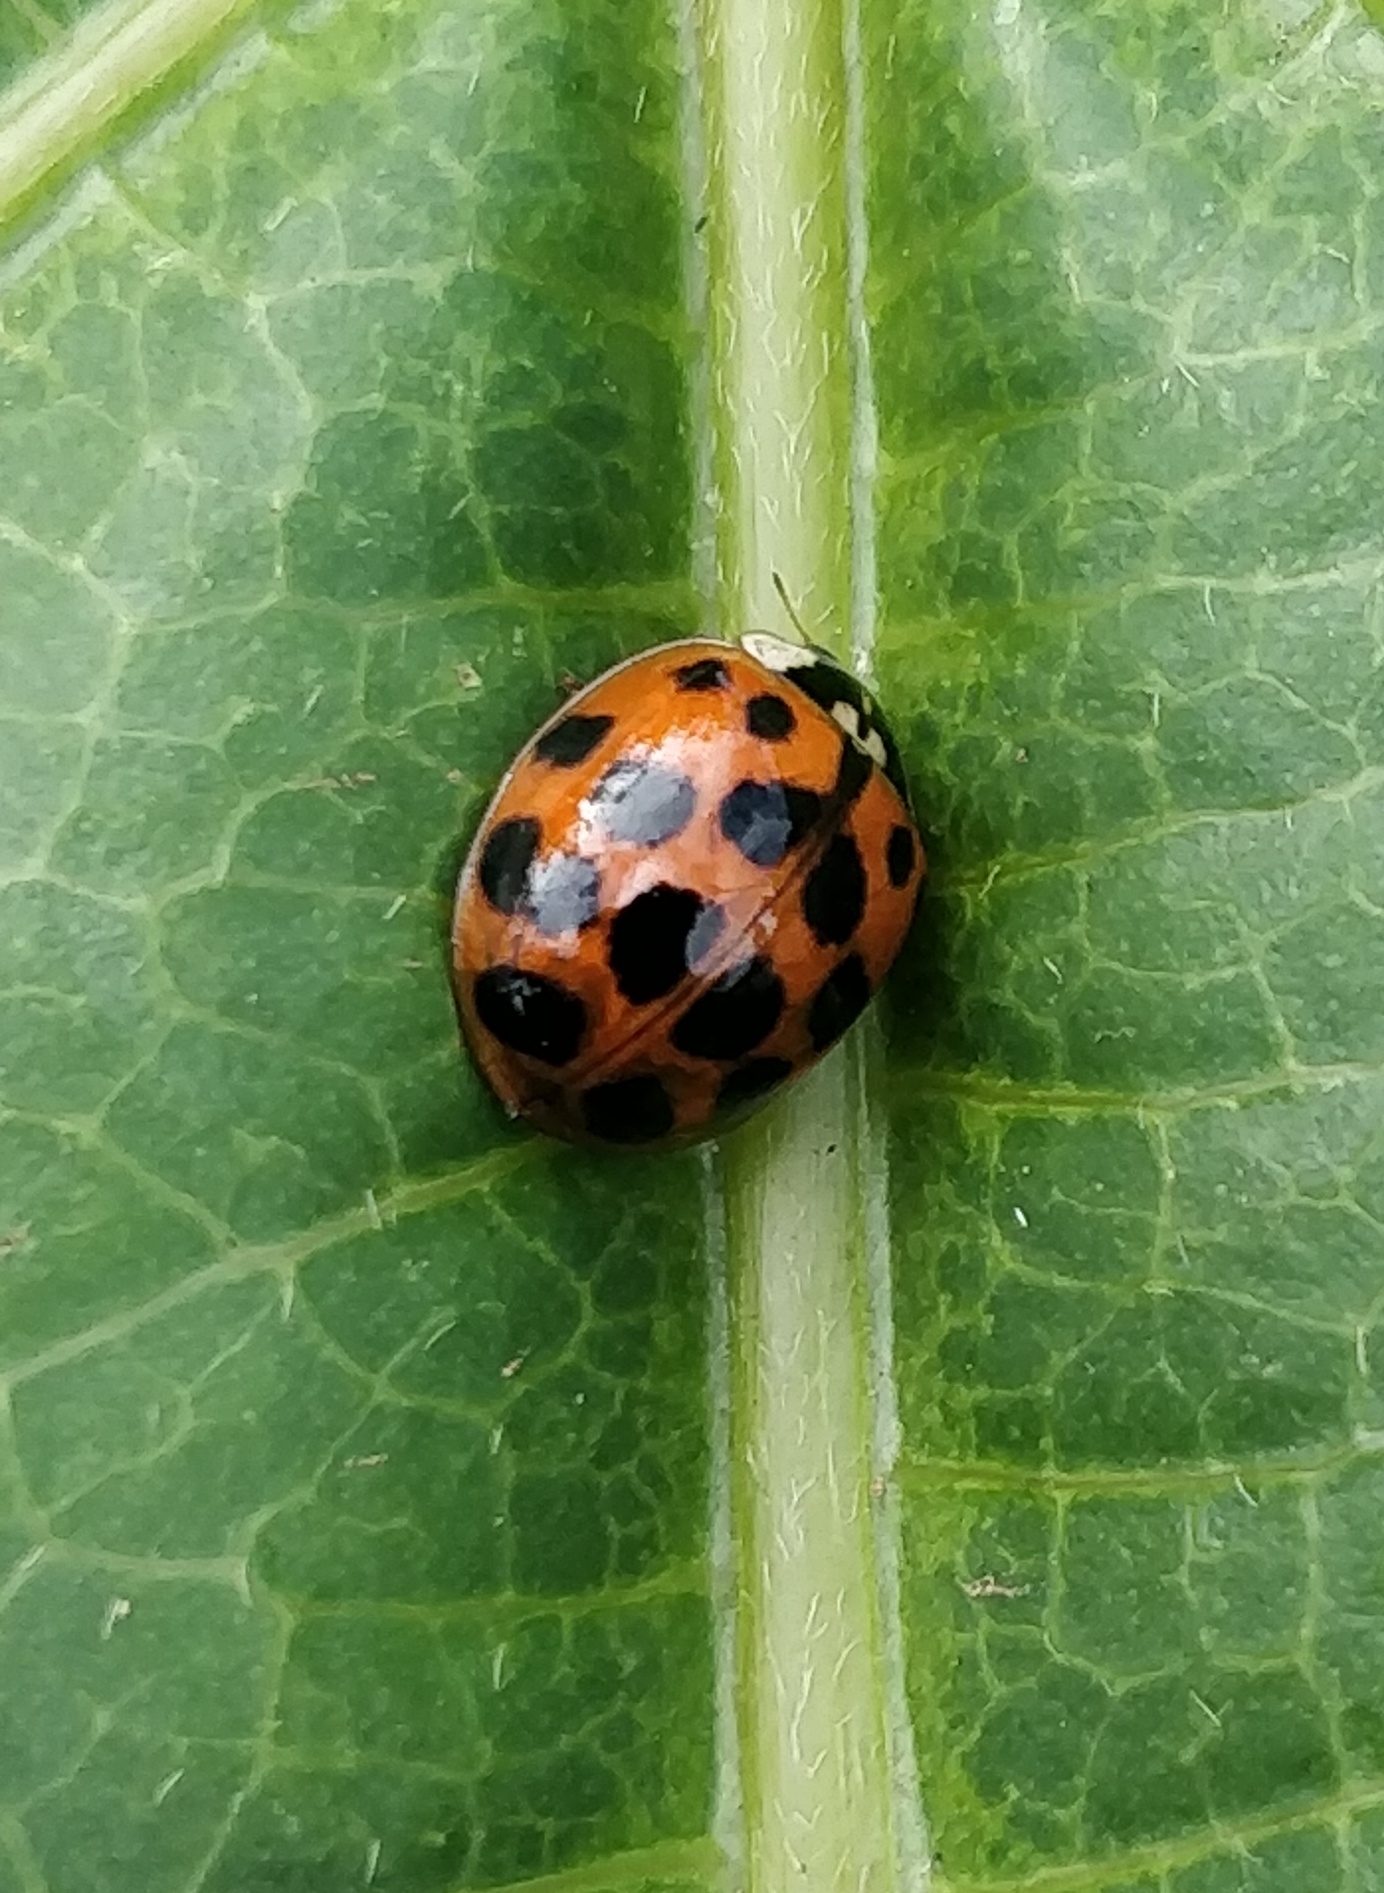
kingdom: Animalia
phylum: Arthropoda
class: Insecta
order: Coleoptera
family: Coccinellidae
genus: Harmonia
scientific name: Harmonia axyridis
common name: Harlequin ladybird
